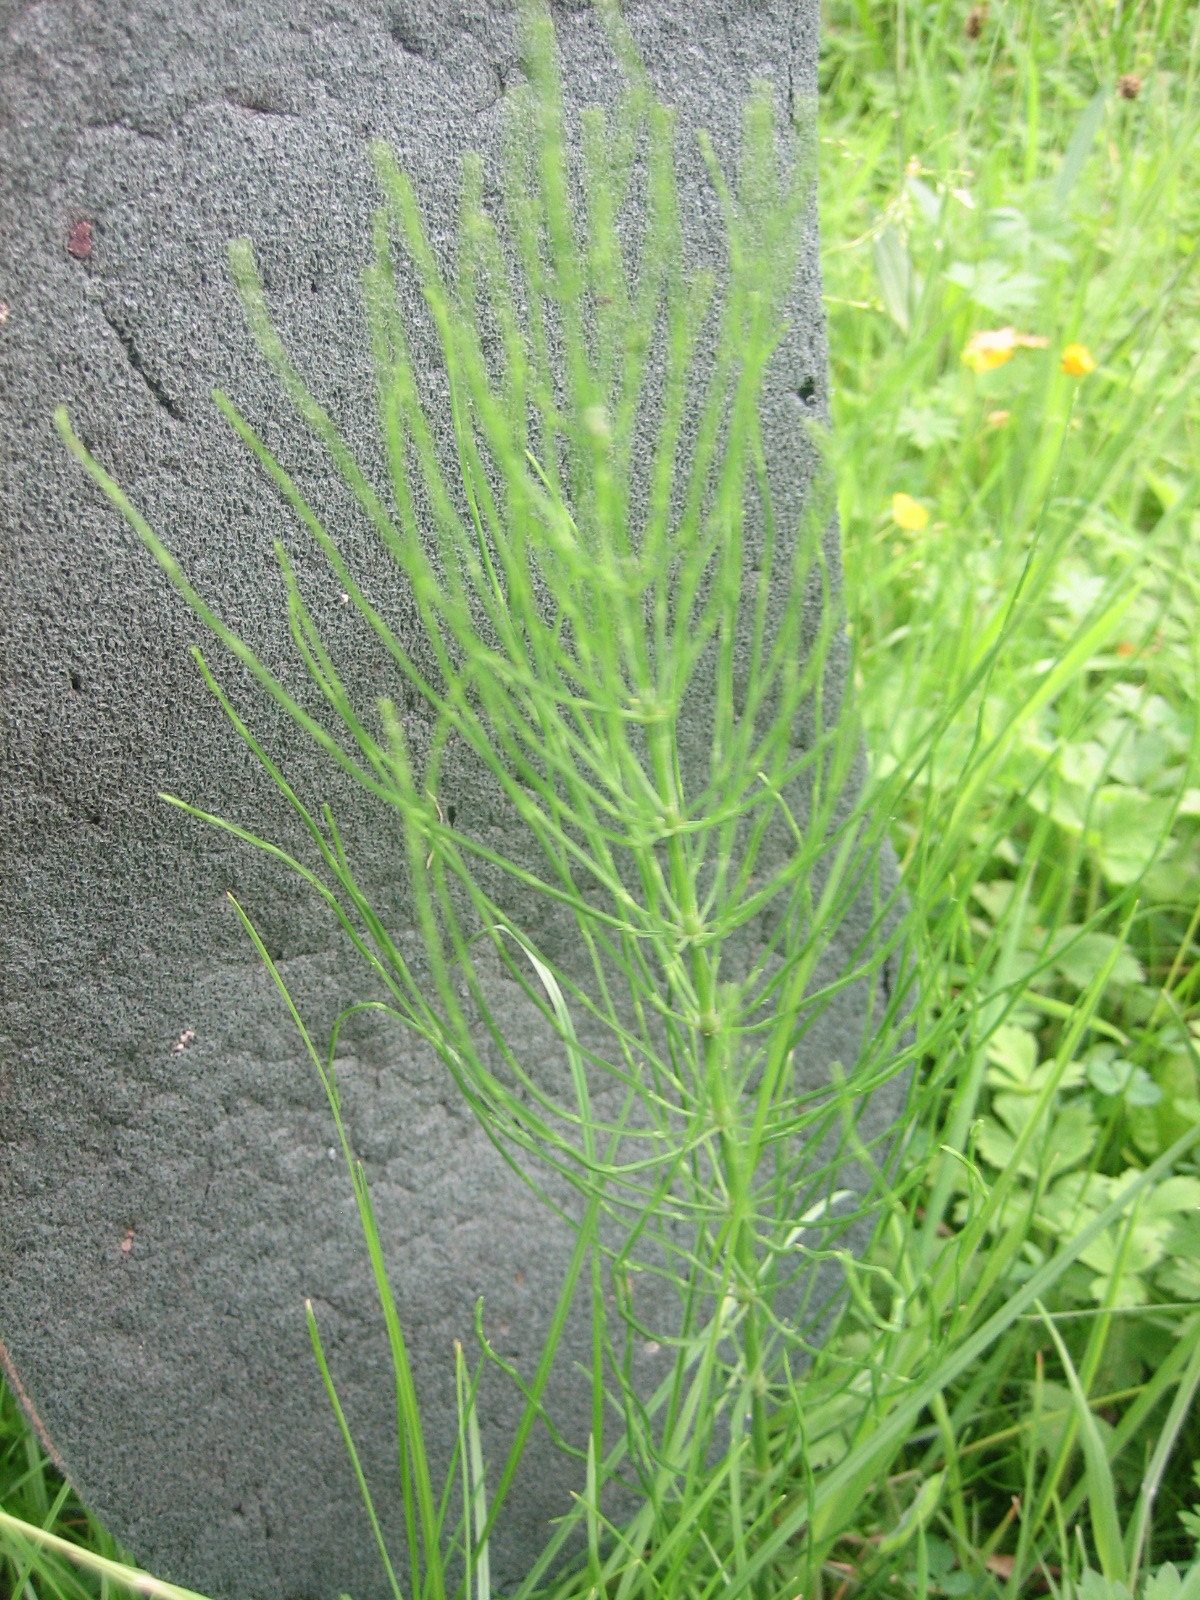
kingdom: Plantae
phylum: Tracheophyta
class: Polypodiopsida
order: Equisetales
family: Equisetaceae
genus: Equisetum
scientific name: Equisetum arvense
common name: Field horsetail
